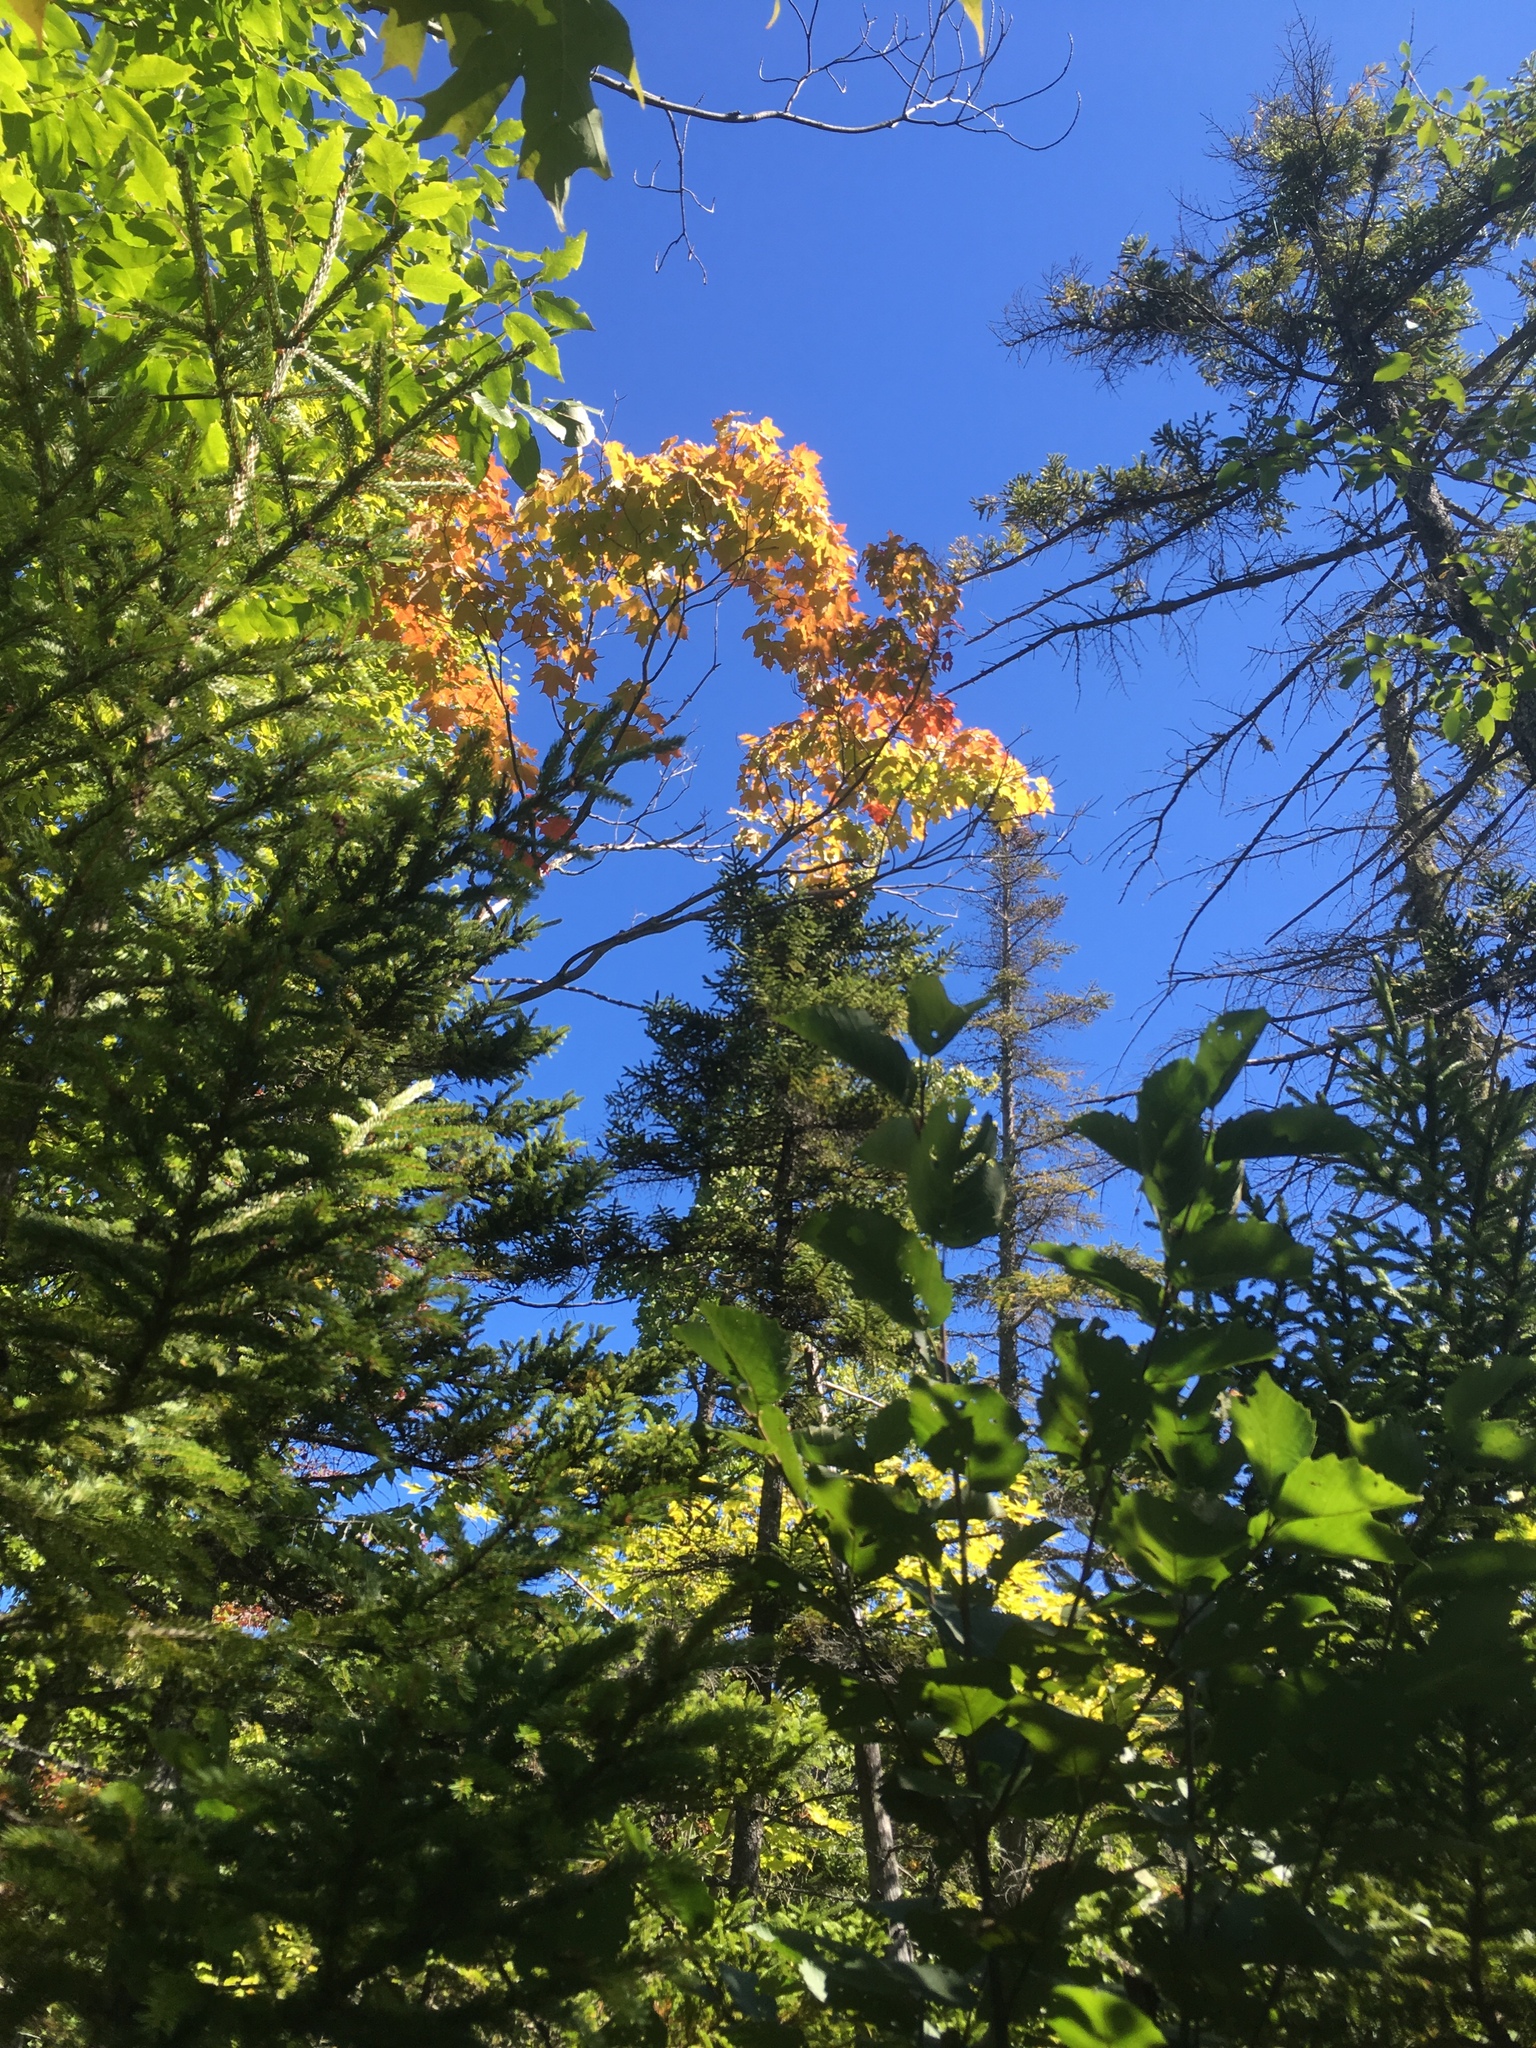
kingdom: Plantae
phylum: Tracheophyta
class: Magnoliopsida
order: Sapindales
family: Sapindaceae
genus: Acer
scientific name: Acer saccharum
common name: Sugar maple
